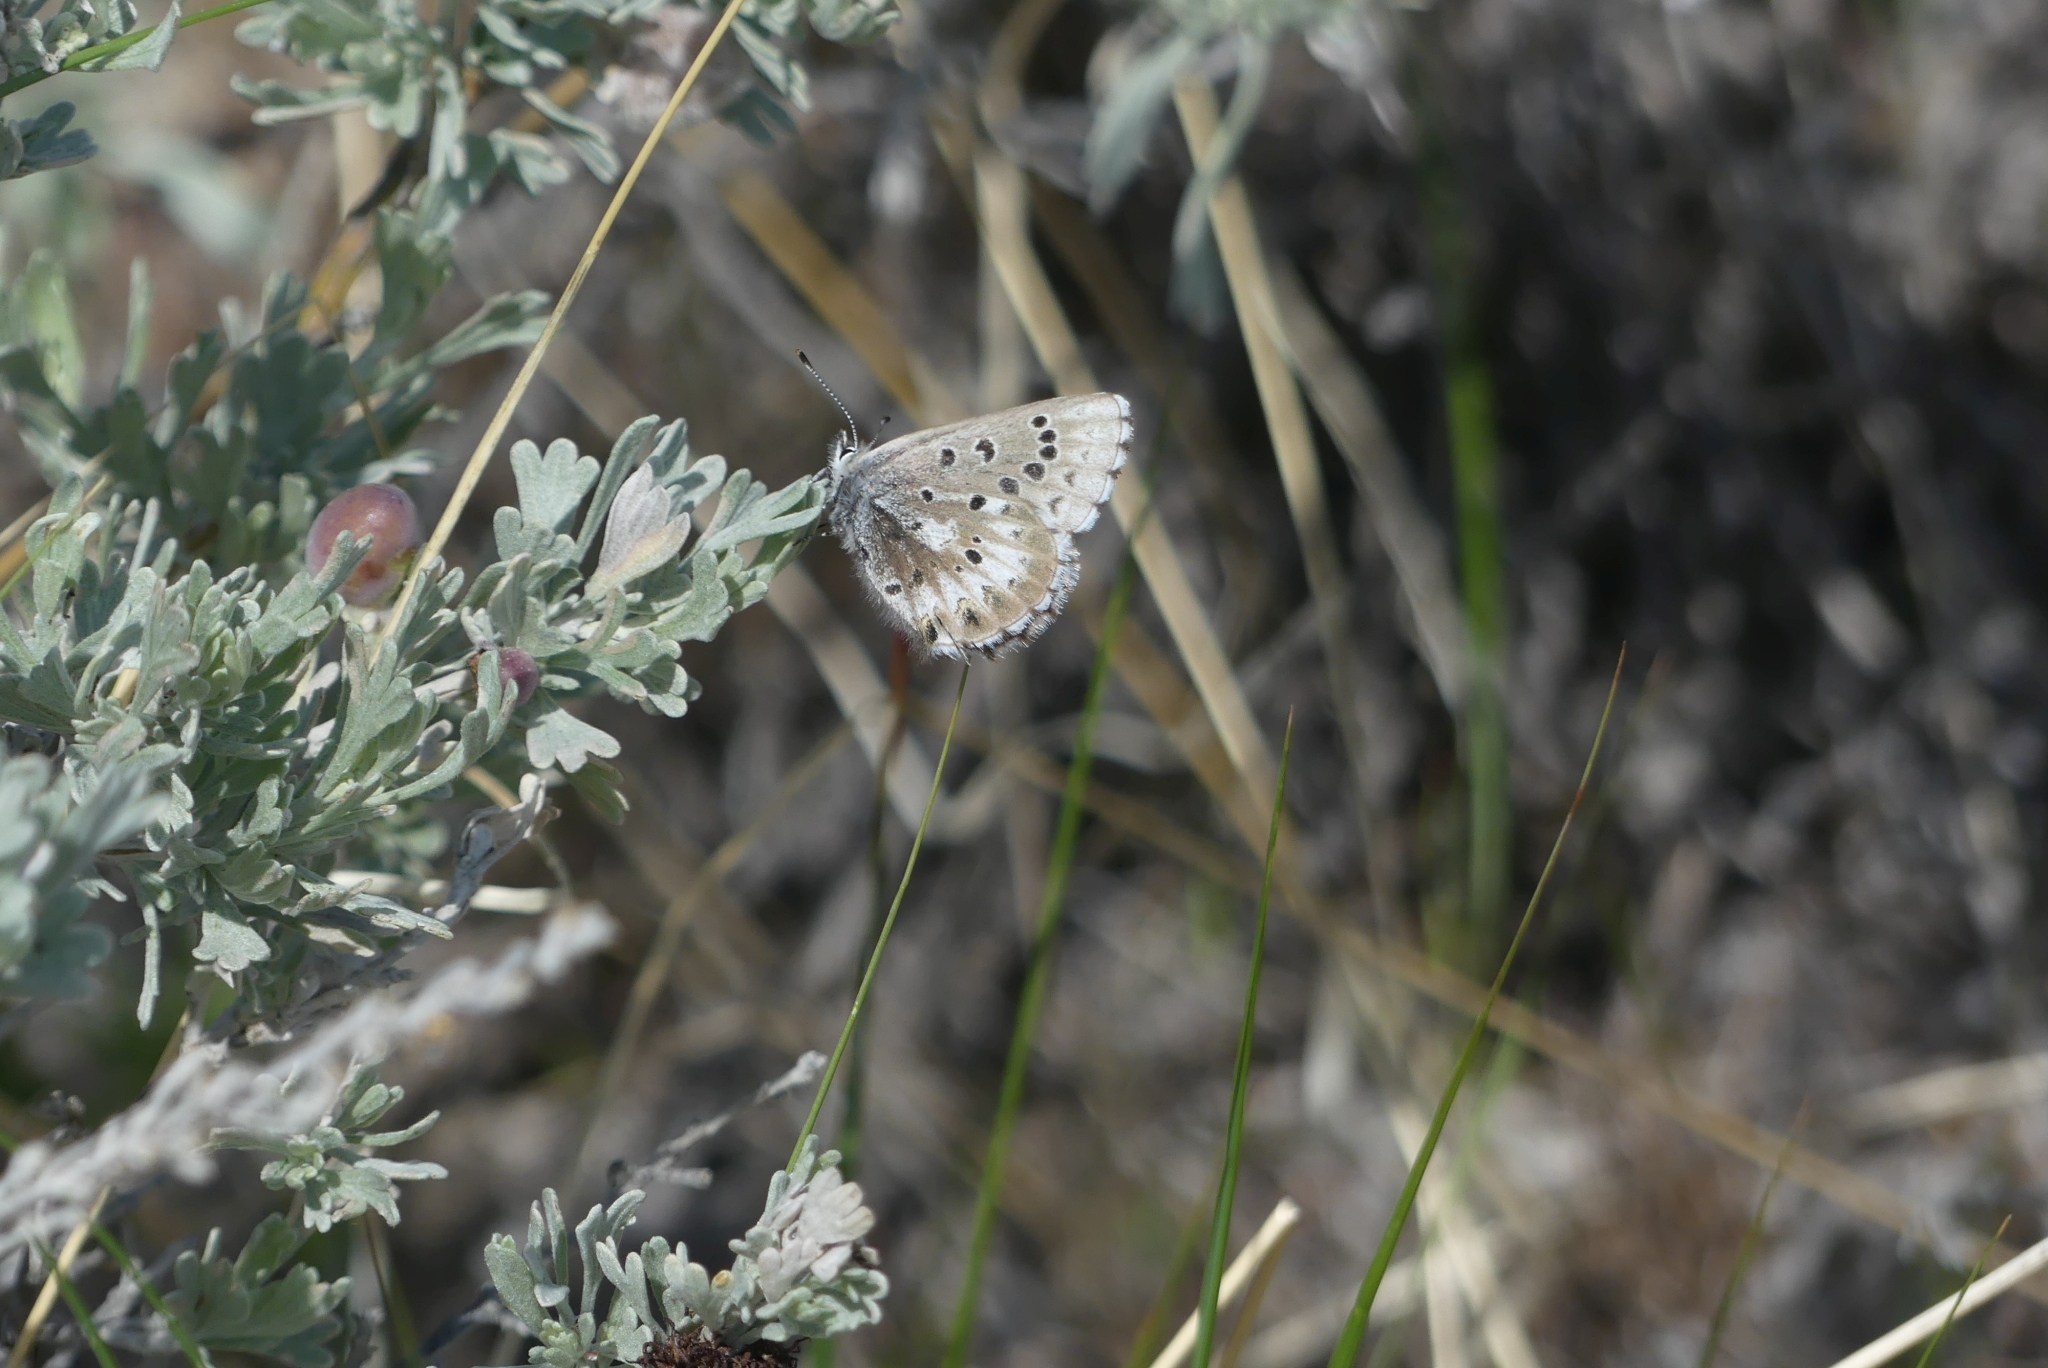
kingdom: Animalia
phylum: Arthropoda
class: Insecta
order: Lepidoptera
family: Lycaenidae
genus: Glaucopsyche
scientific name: Glaucopsyche piasus
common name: Arrowhead blue
